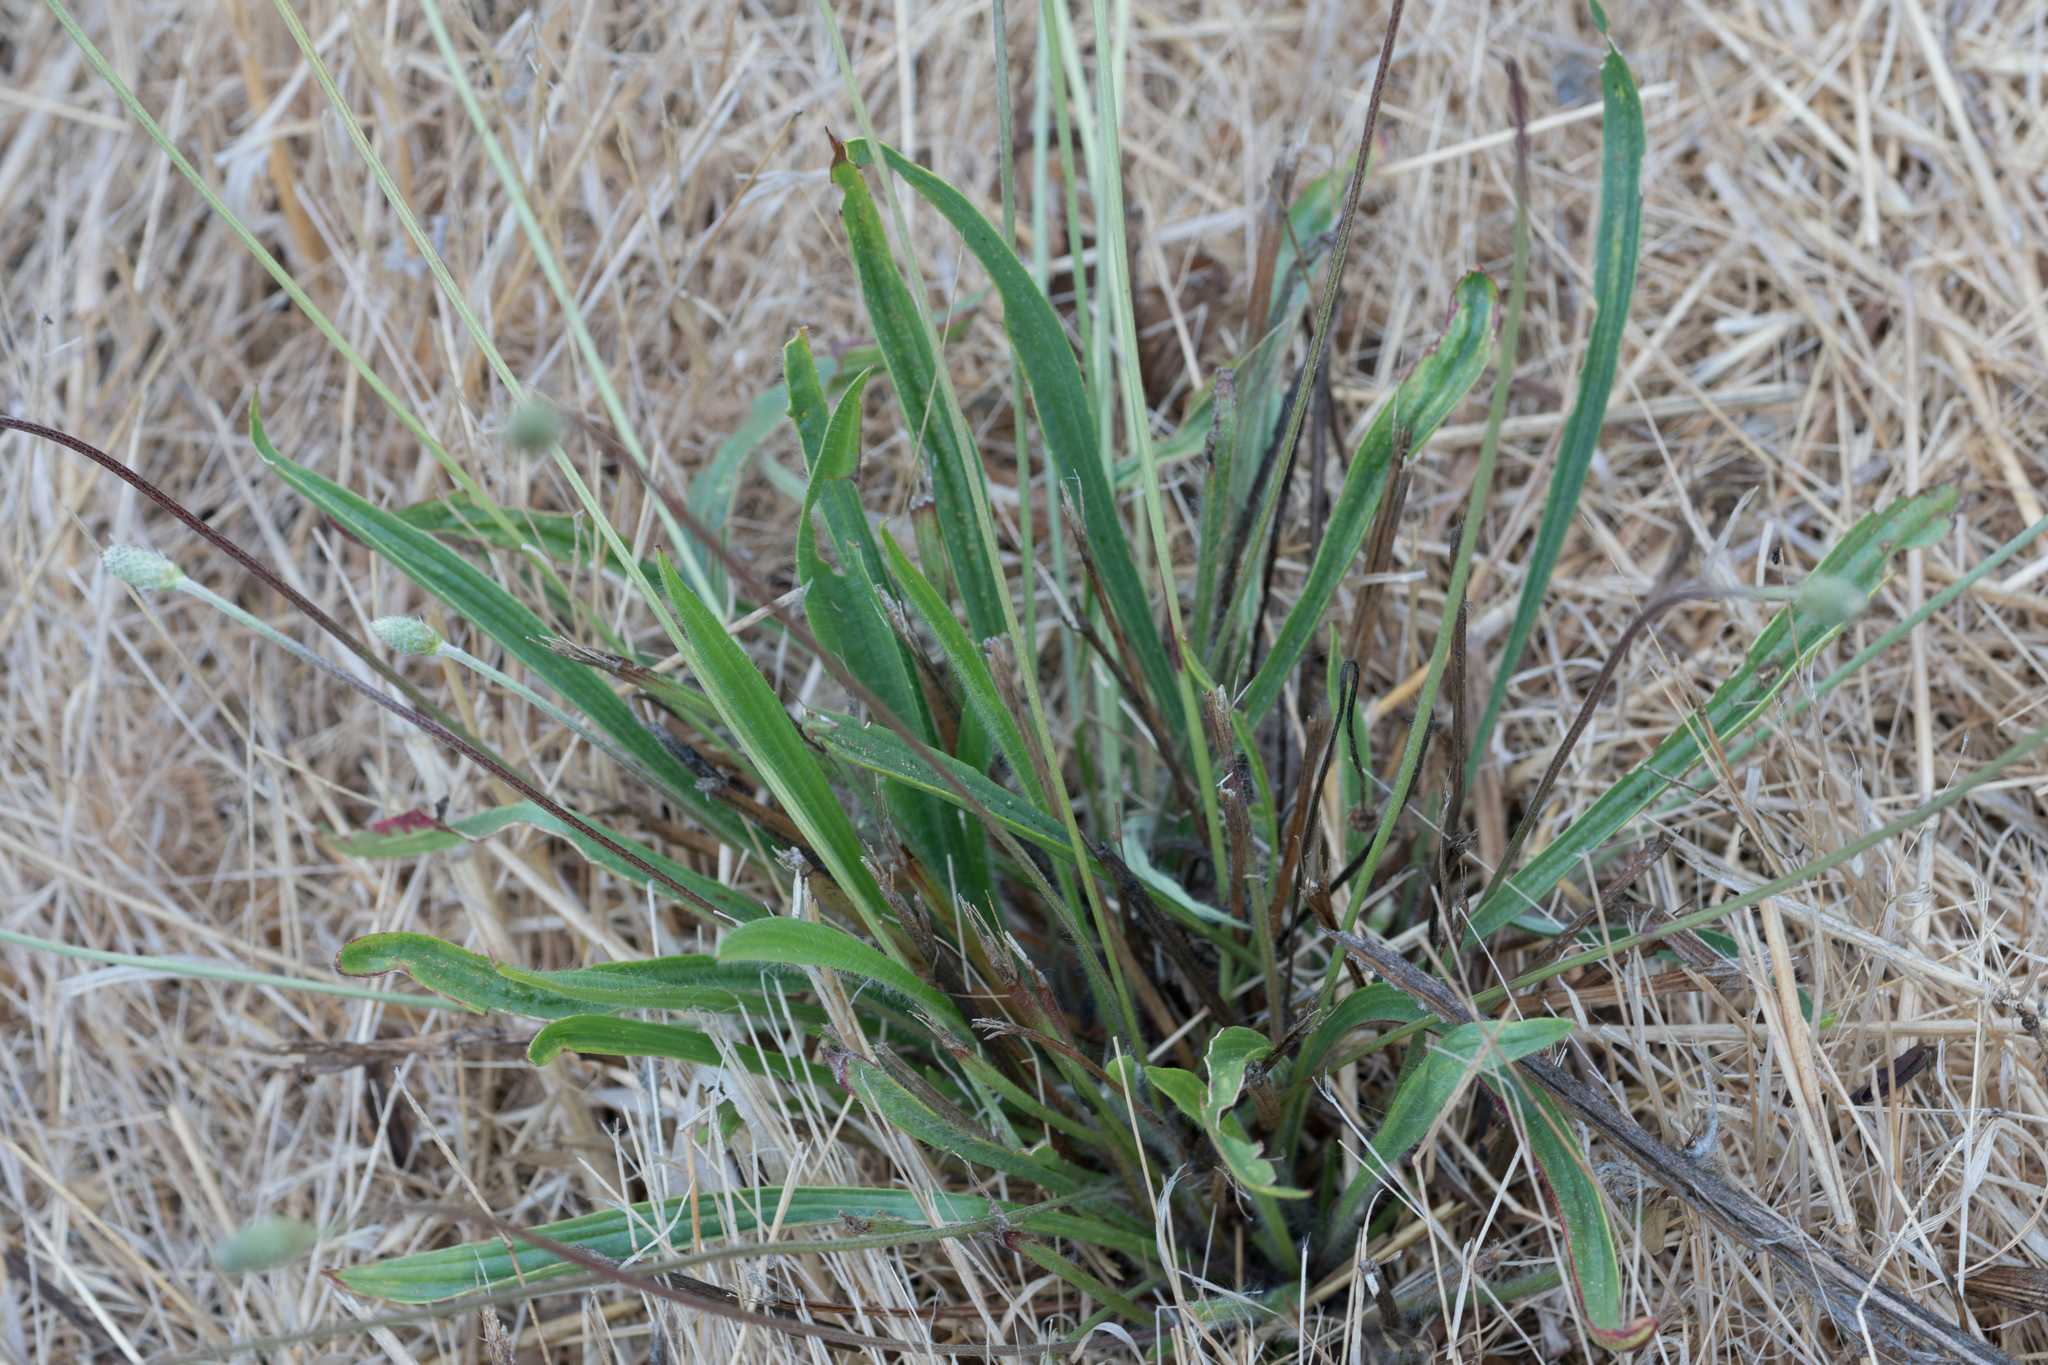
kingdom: Plantae
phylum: Tracheophyta
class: Magnoliopsida
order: Lamiales
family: Plantaginaceae
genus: Plantago
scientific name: Plantago lanceolata
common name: Ribwort plantain
